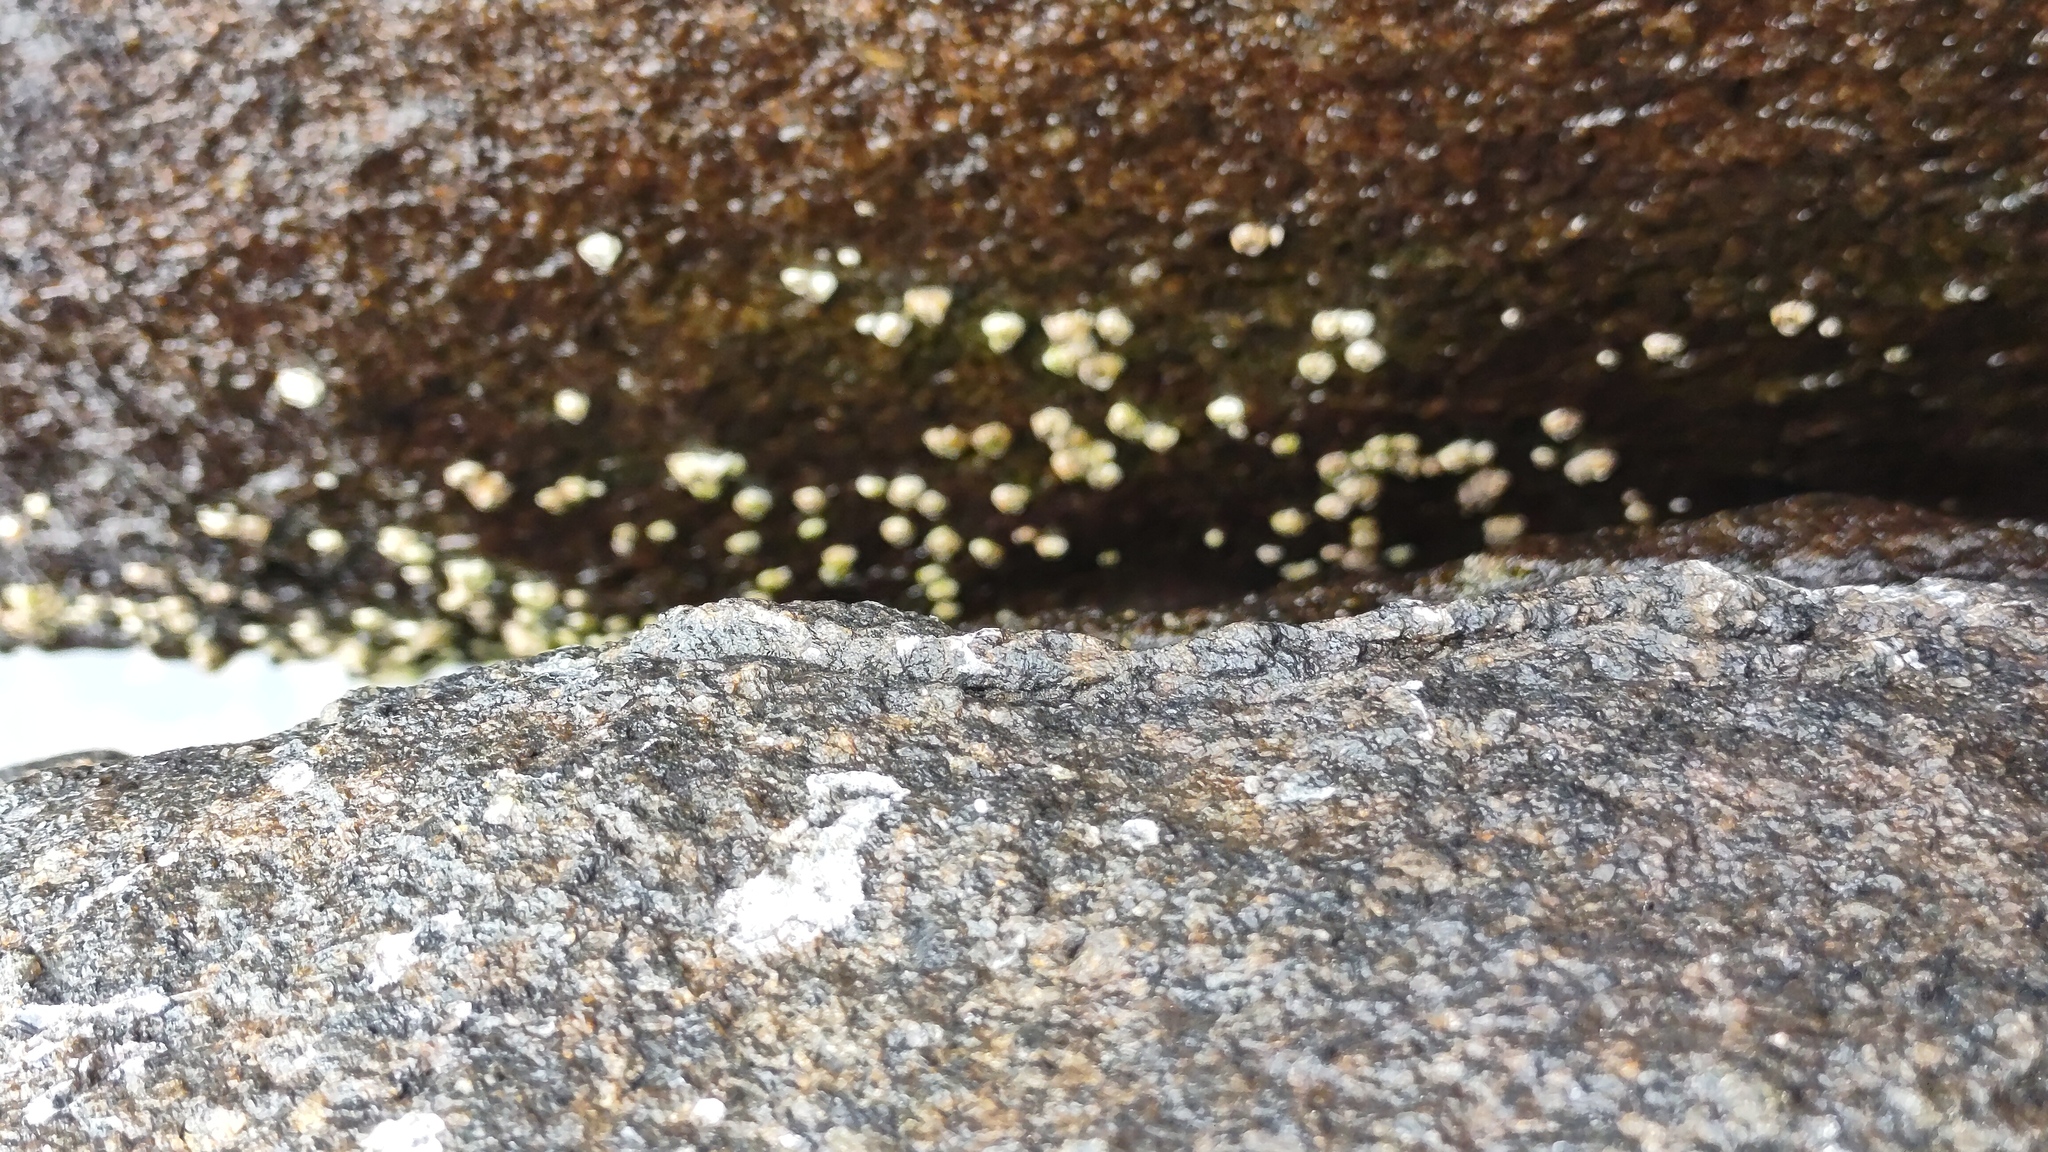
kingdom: Animalia
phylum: Arthropoda
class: Maxillopoda
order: Sessilia
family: Archaeobalanidae
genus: Semibalanus
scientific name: Semibalanus balanoides
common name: Acorn barnacle
